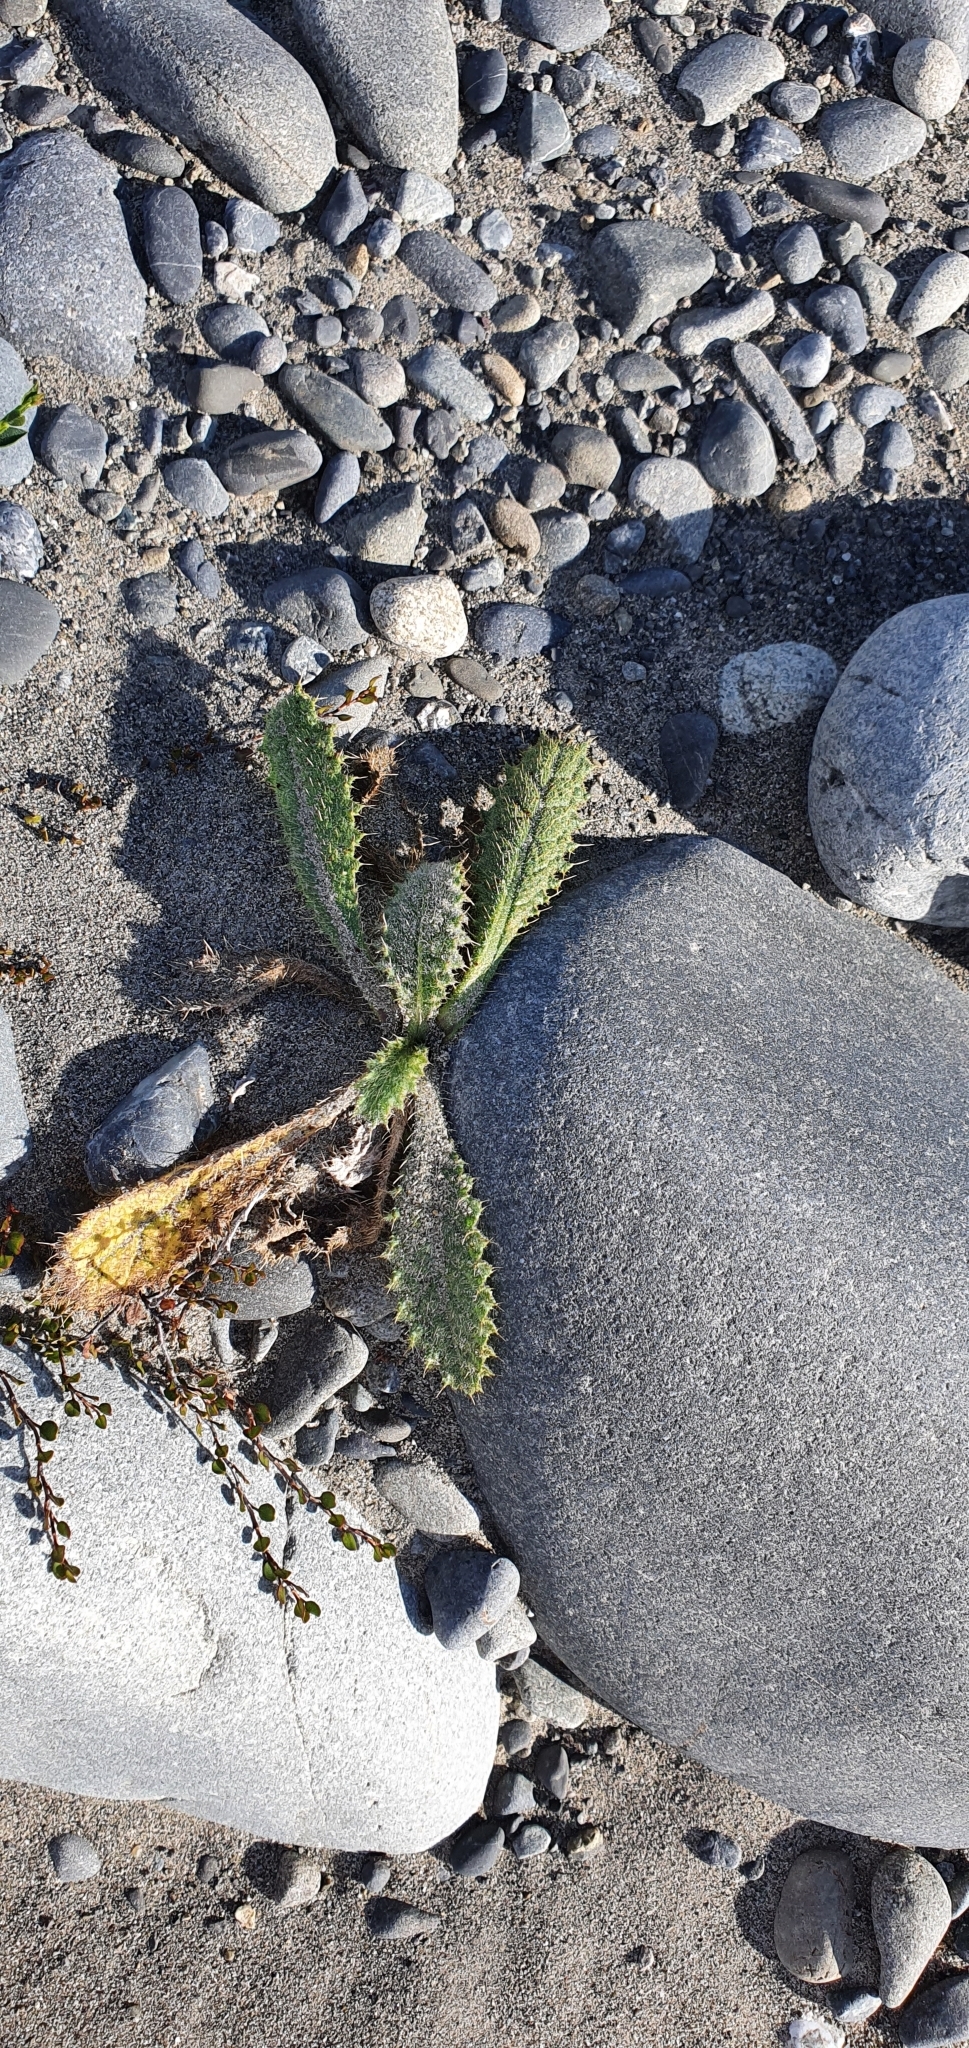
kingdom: Plantae
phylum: Tracheophyta
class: Magnoliopsida
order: Asterales
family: Asteraceae
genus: Cirsium
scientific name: Cirsium vulgare
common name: Bull thistle
